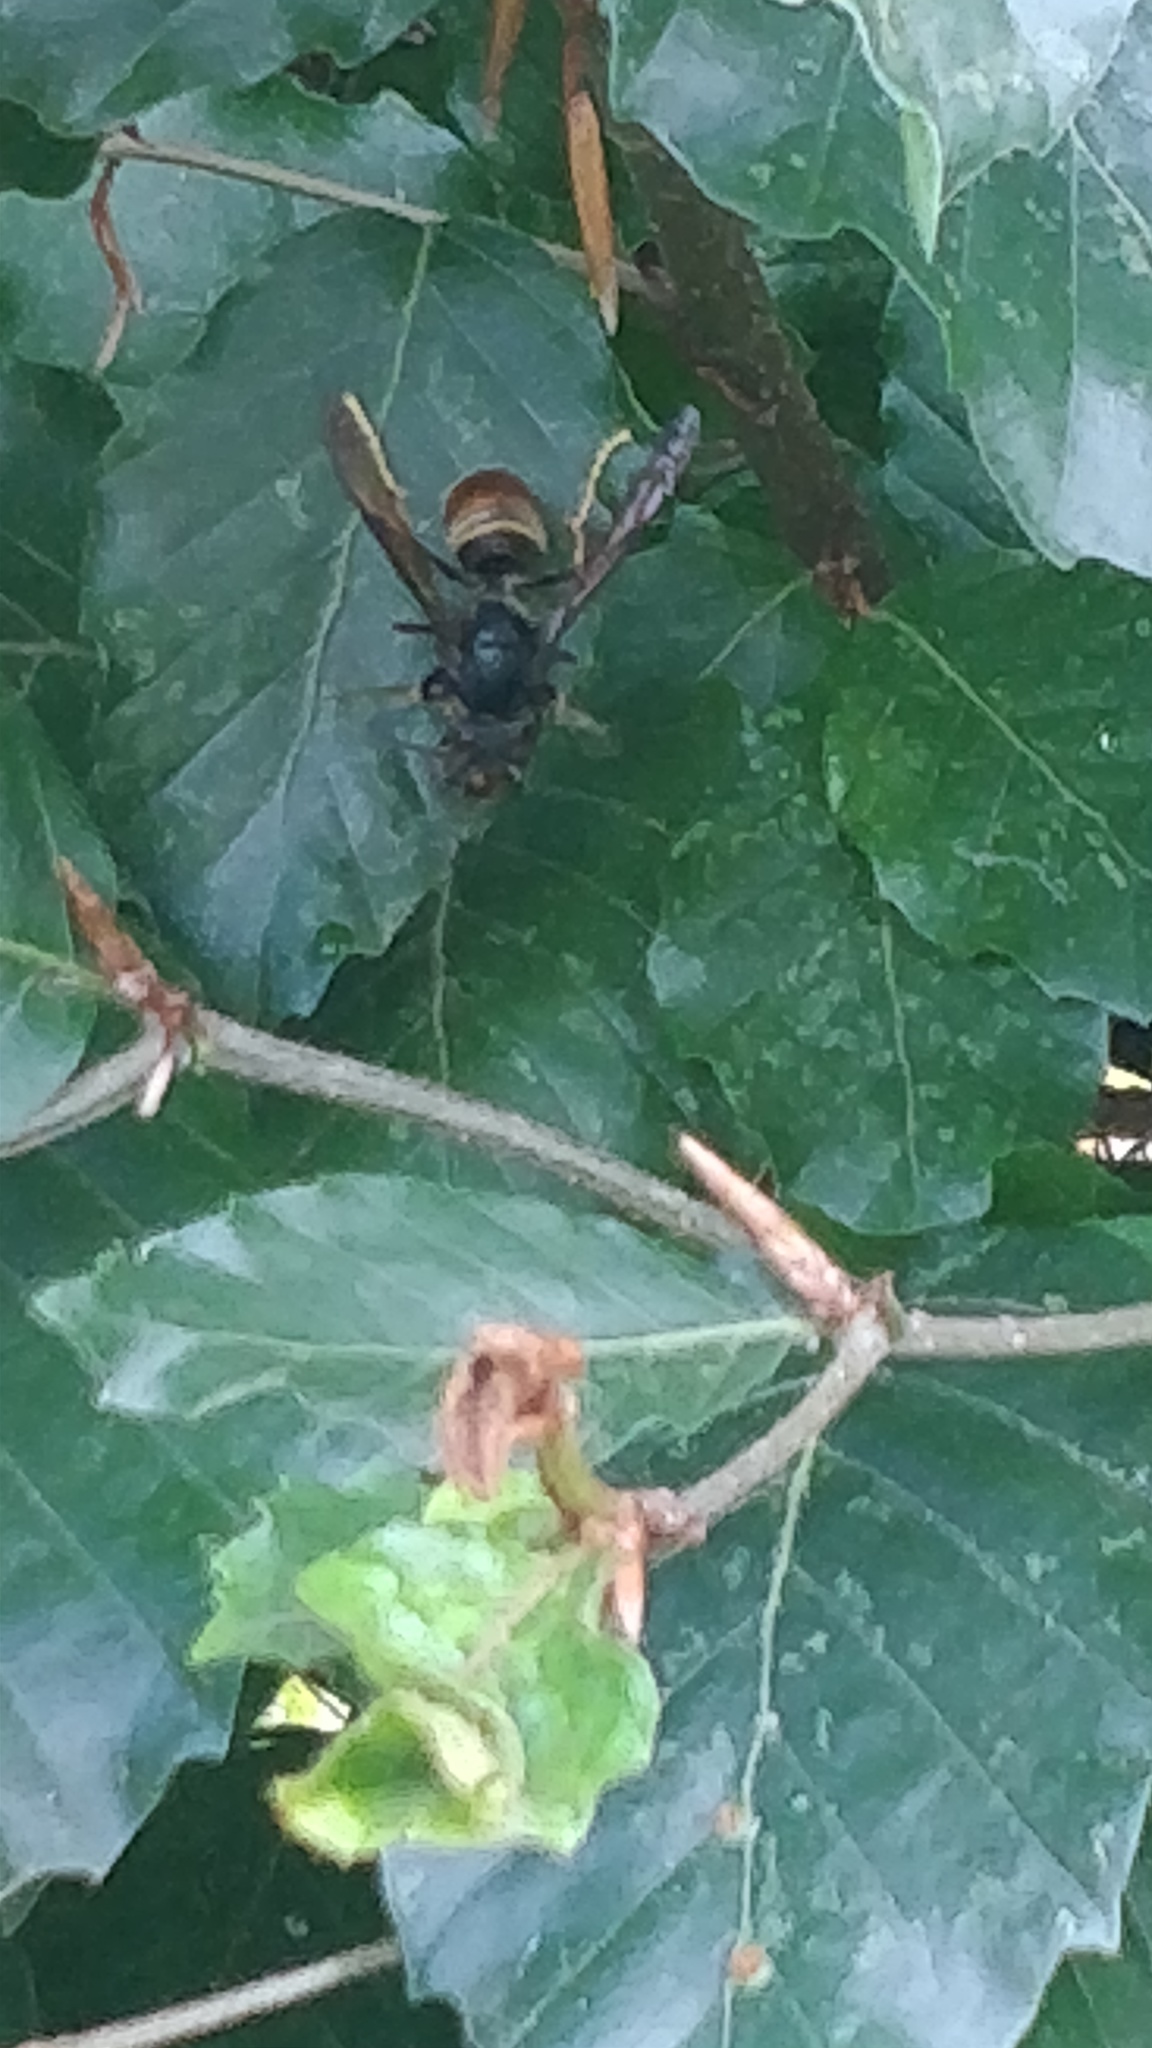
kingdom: Animalia
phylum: Arthropoda
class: Insecta
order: Hymenoptera
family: Vespidae
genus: Vespa
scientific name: Vespa velutina
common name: Asian hornet
